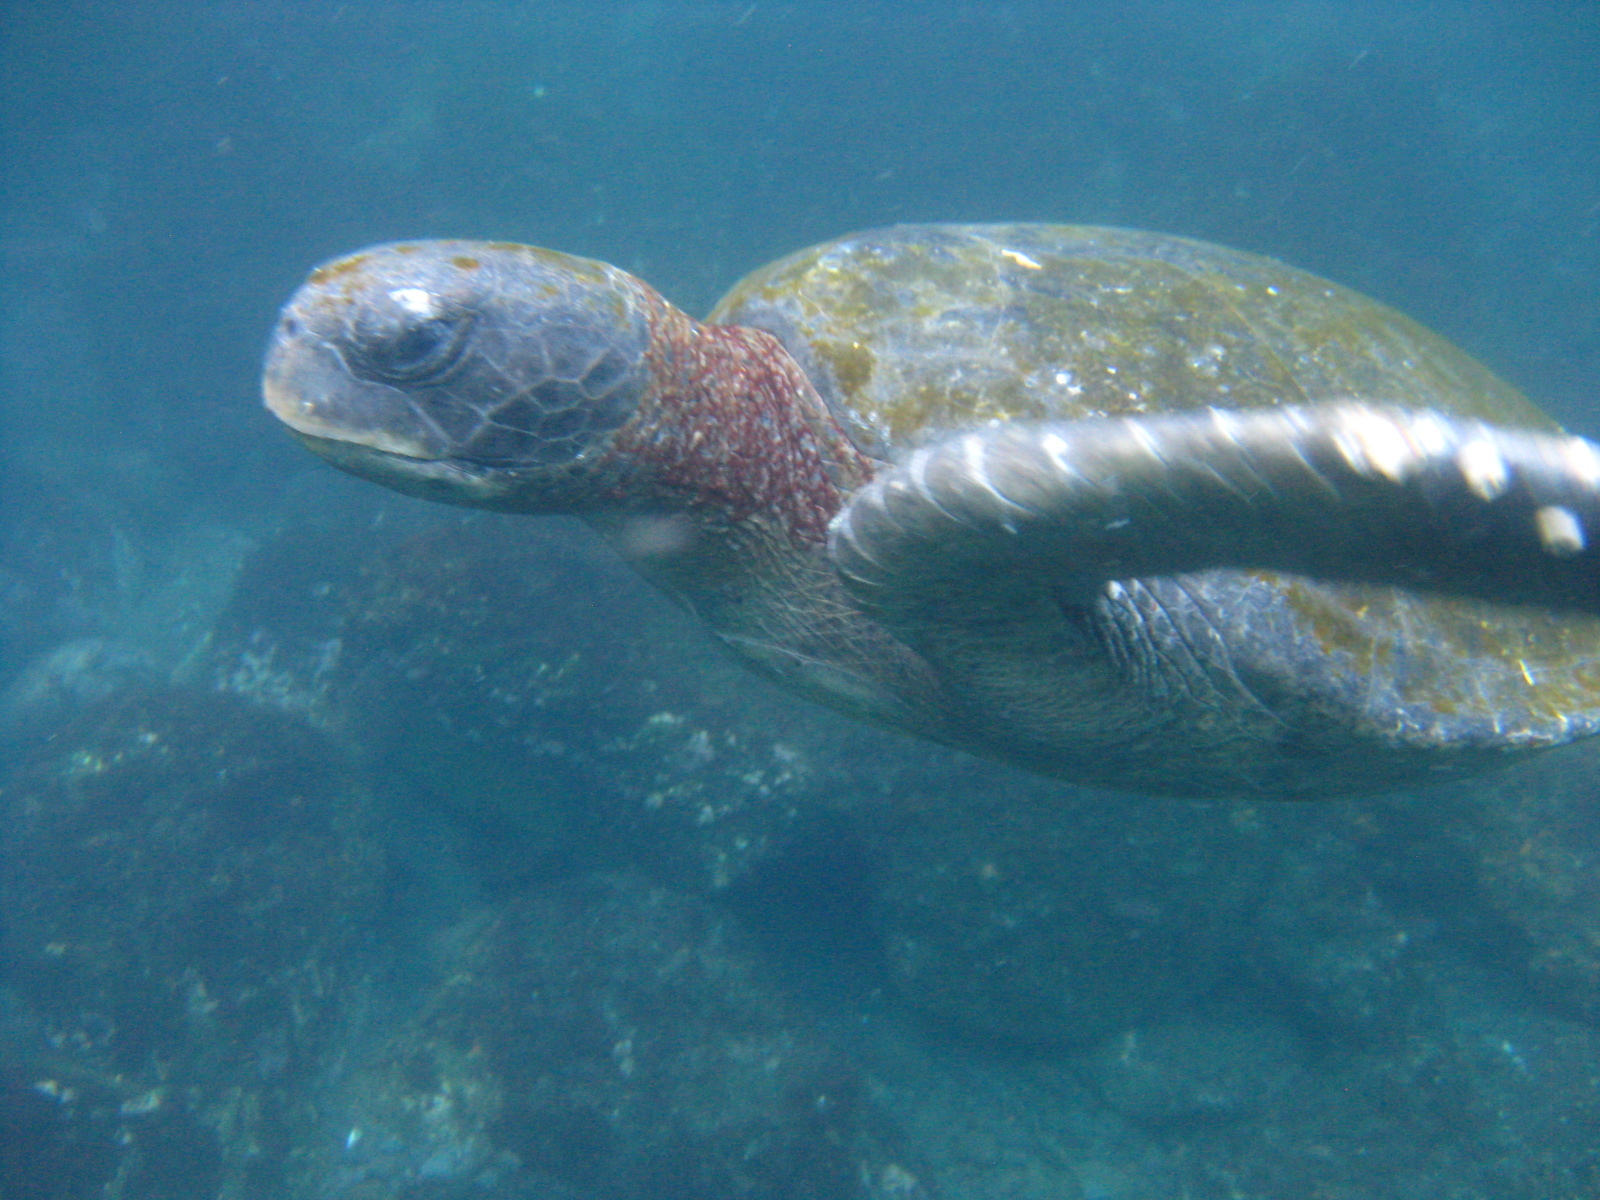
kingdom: Animalia
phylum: Chordata
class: Testudines
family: Cheloniidae
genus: Chelonia
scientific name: Chelonia mydas
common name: Green turtle
